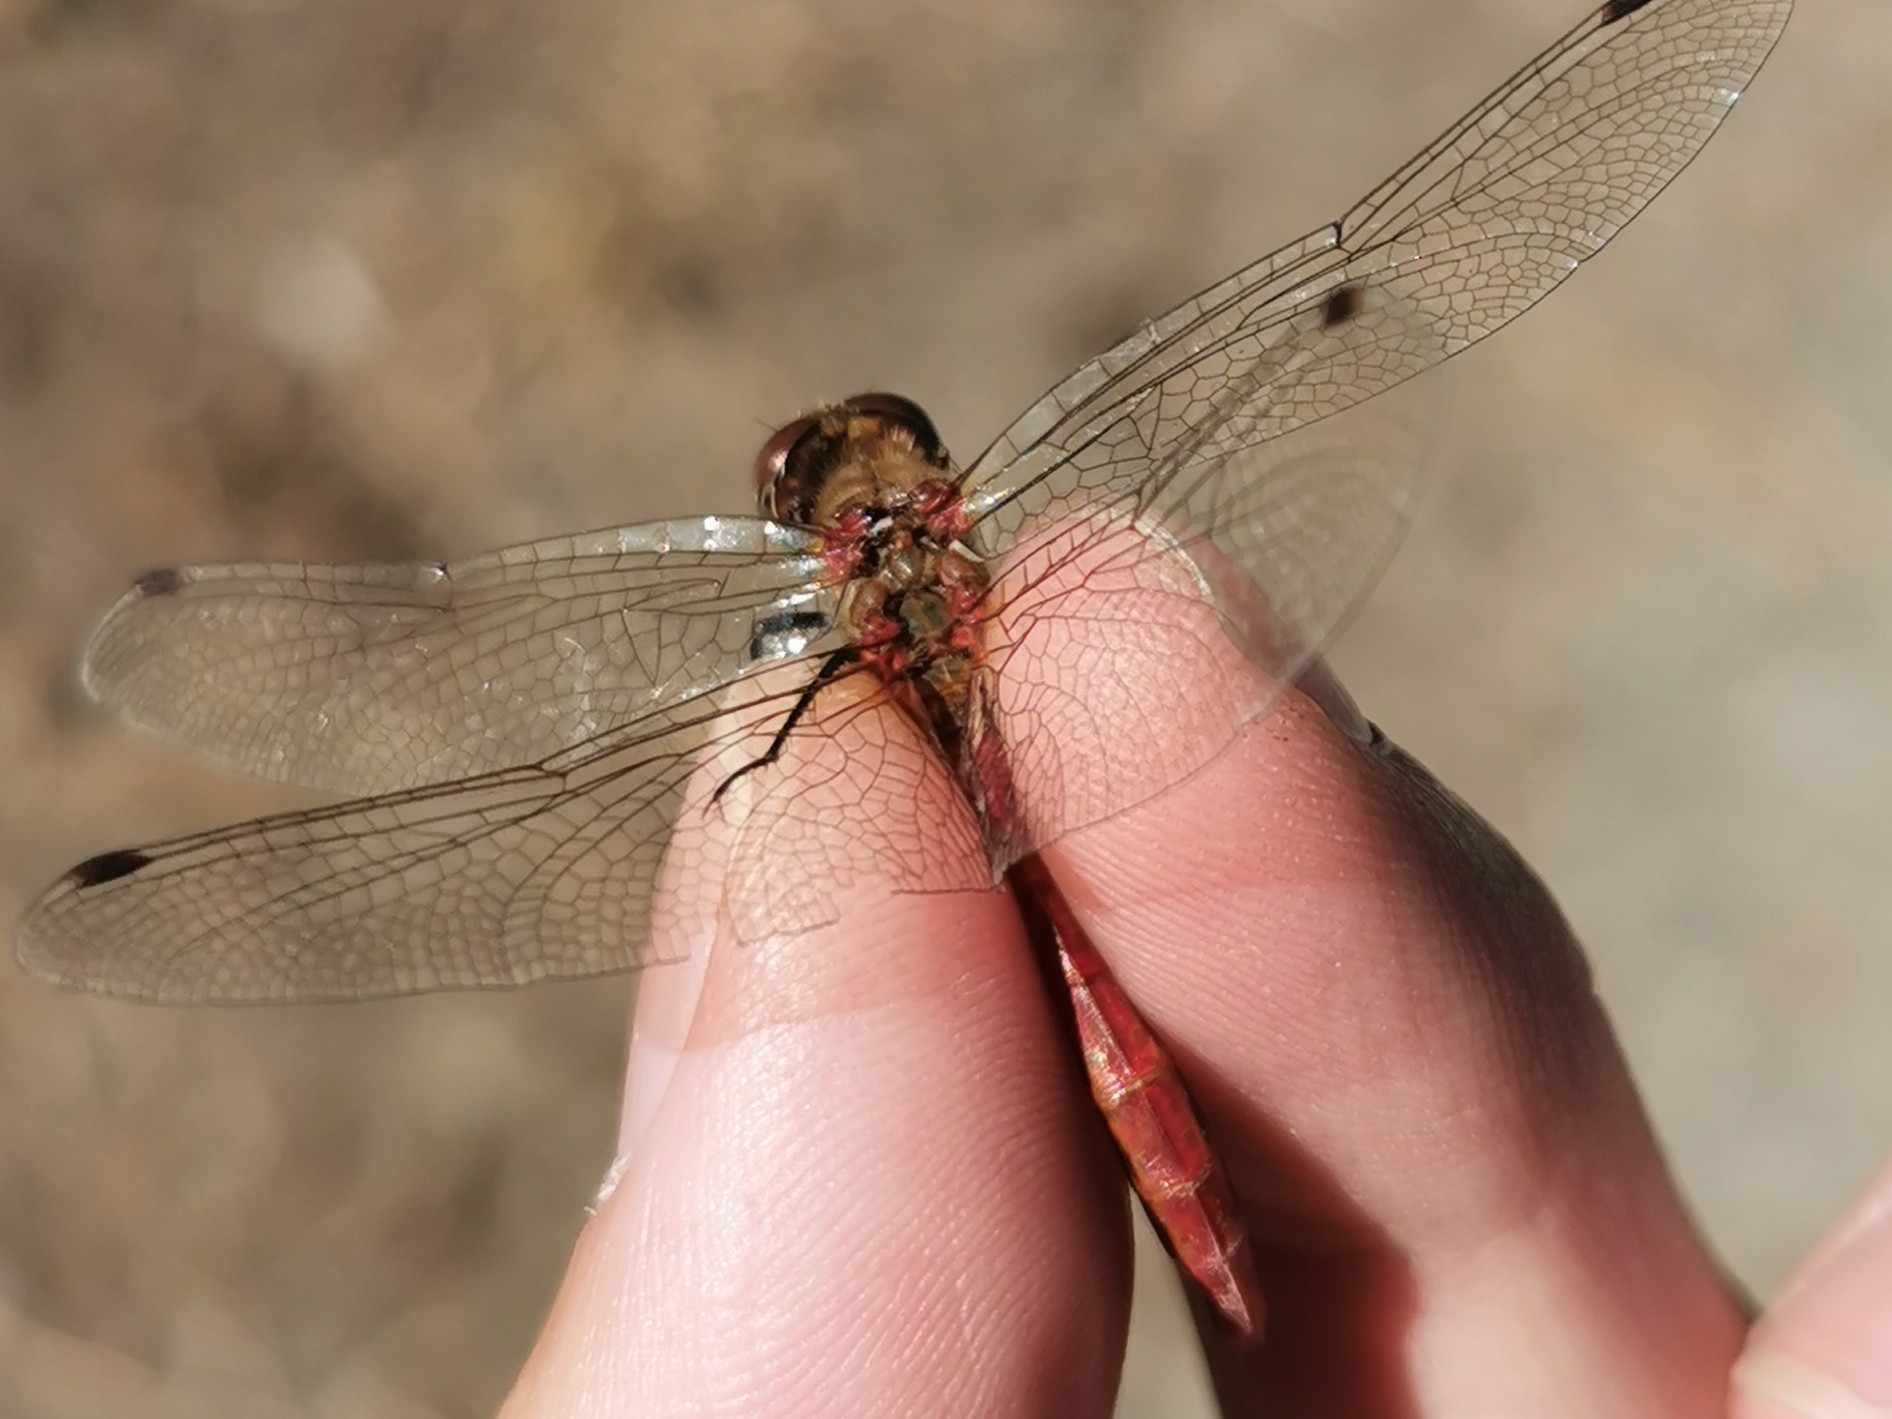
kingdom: Animalia
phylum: Arthropoda
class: Insecta
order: Odonata
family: Libellulidae
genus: Sympetrum
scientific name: Sympetrum pallipes
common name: Striped meadowhawk
